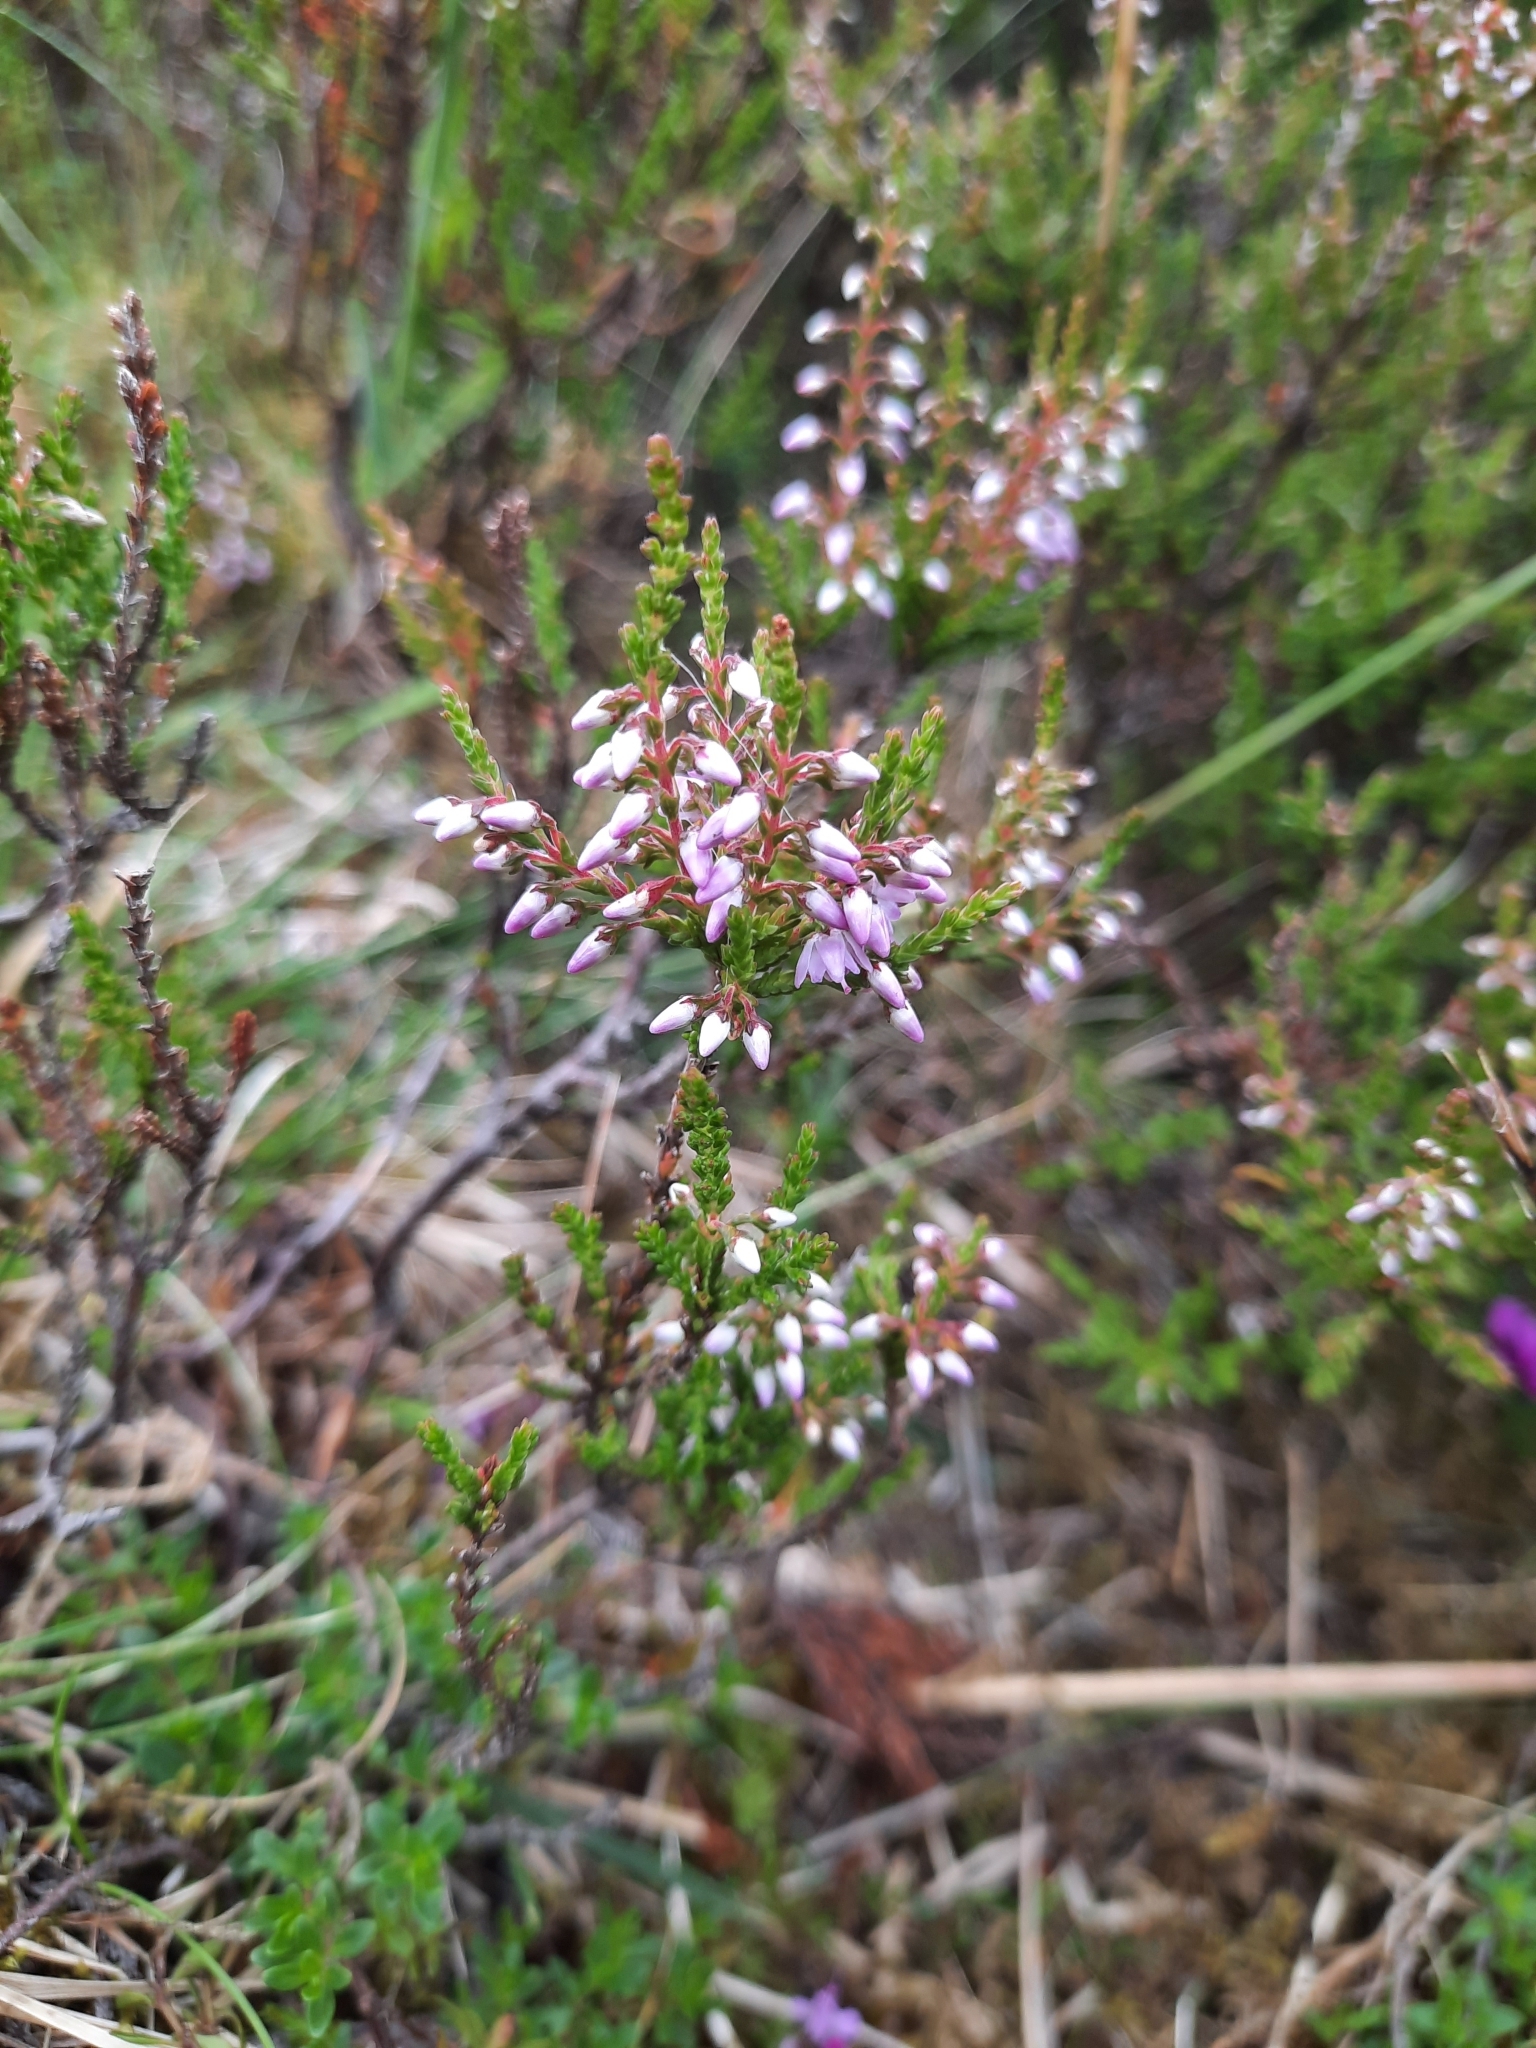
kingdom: Plantae
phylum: Tracheophyta
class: Magnoliopsida
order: Ericales
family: Ericaceae
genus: Calluna
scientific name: Calluna vulgaris
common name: Heather
